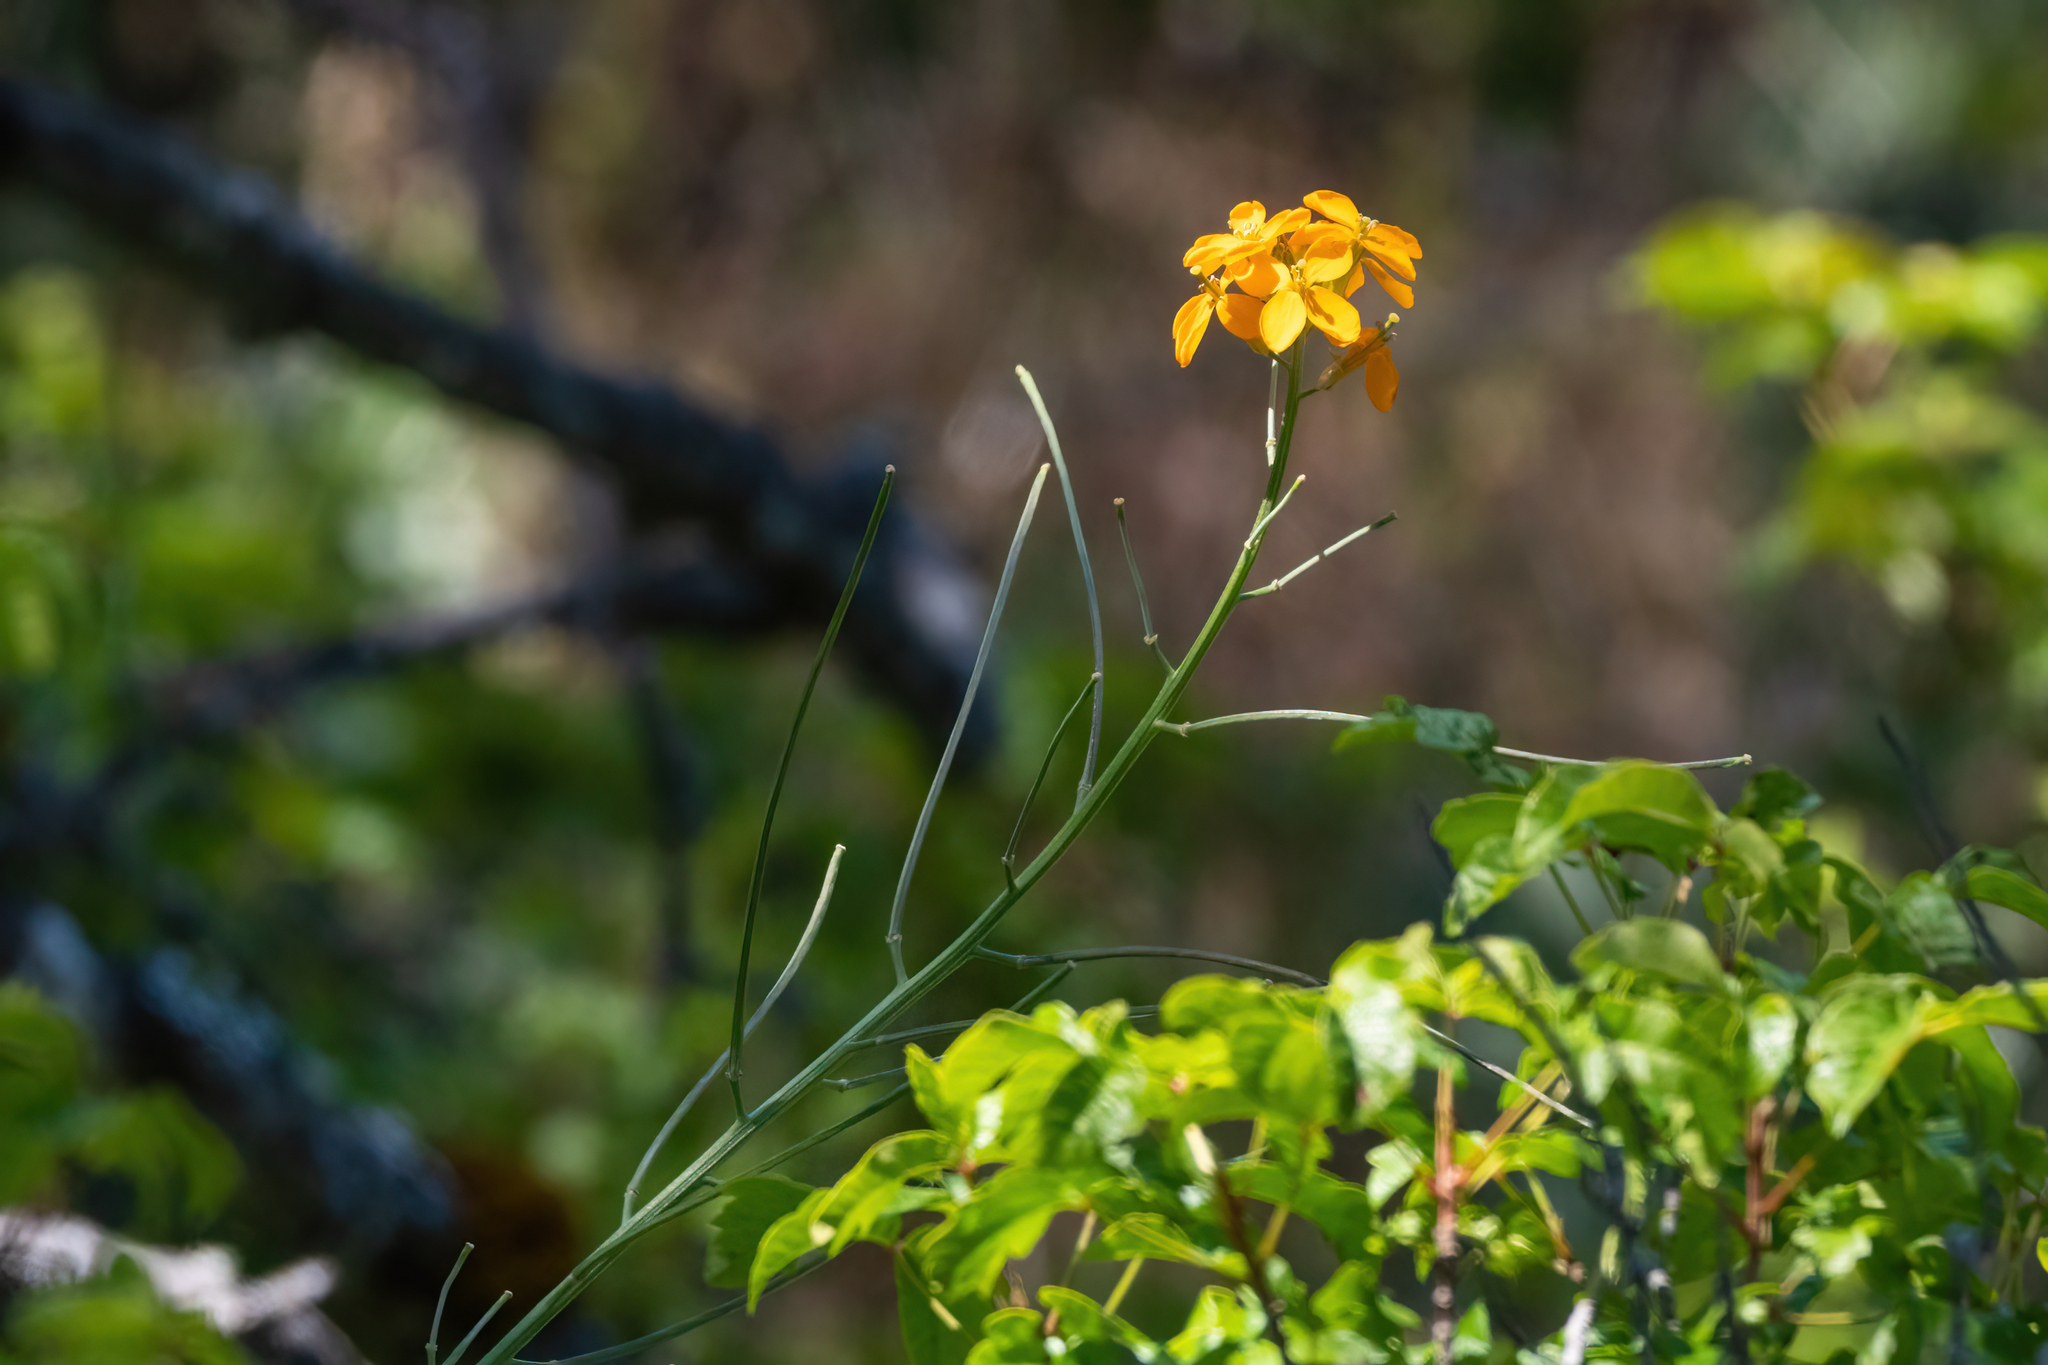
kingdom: Plantae
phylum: Tracheophyta
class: Magnoliopsida
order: Brassicales
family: Brassicaceae
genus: Erysimum
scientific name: Erysimum capitatum
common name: Western wallflower
